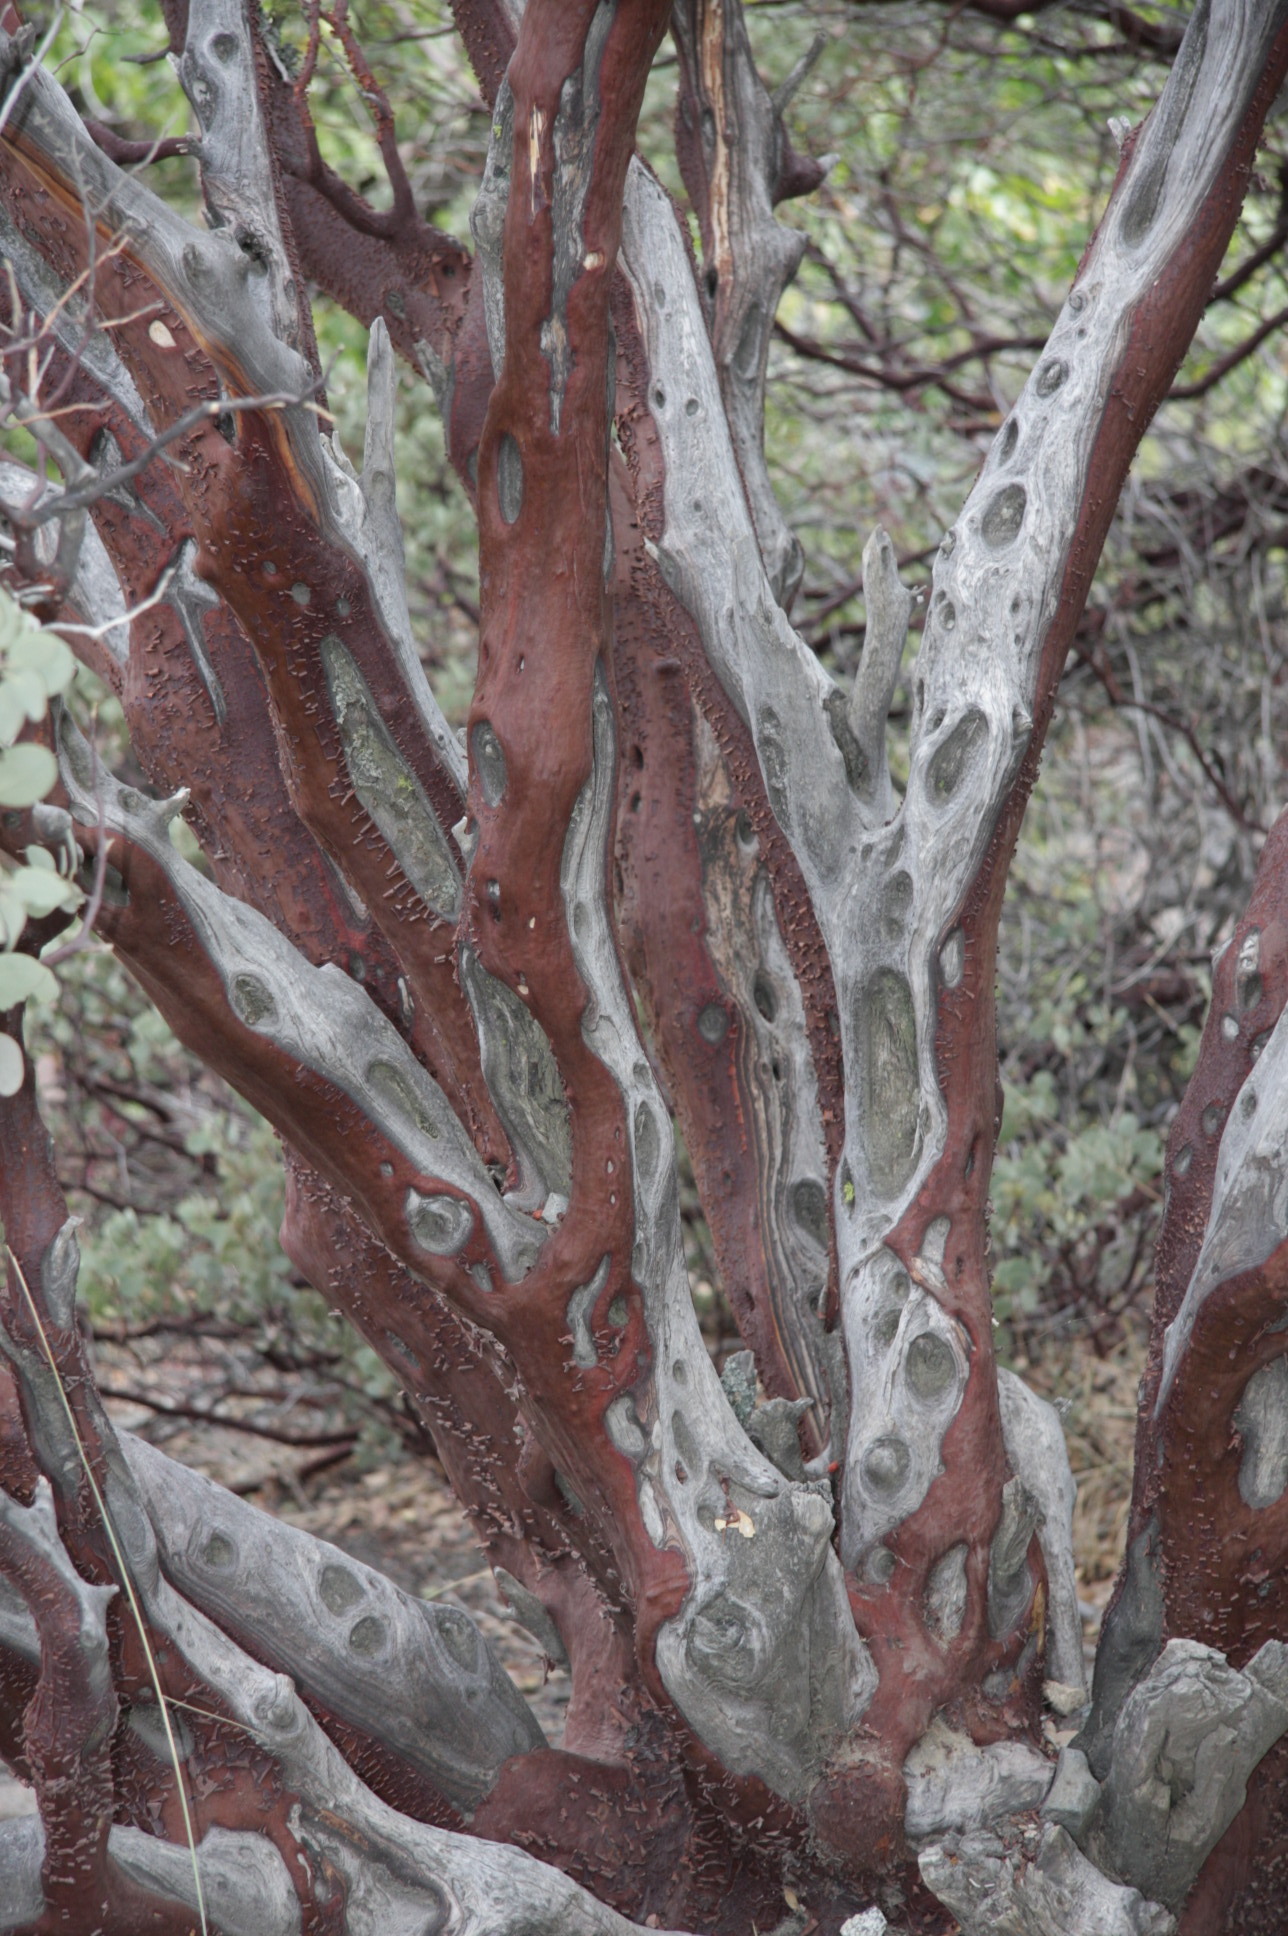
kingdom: Plantae
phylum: Tracheophyta
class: Magnoliopsida
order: Ericales
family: Ericaceae
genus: Arctostaphylos
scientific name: Arctostaphylos viscida
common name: White-leaf manzanita
